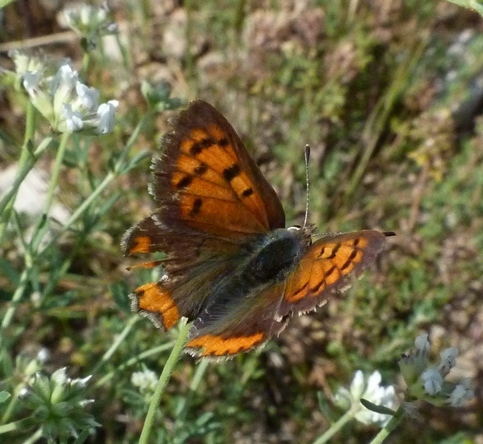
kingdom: Animalia
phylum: Arthropoda
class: Insecta
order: Lepidoptera
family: Lycaenidae
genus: Lycaena
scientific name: Lycaena phlaeas
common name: Small copper
